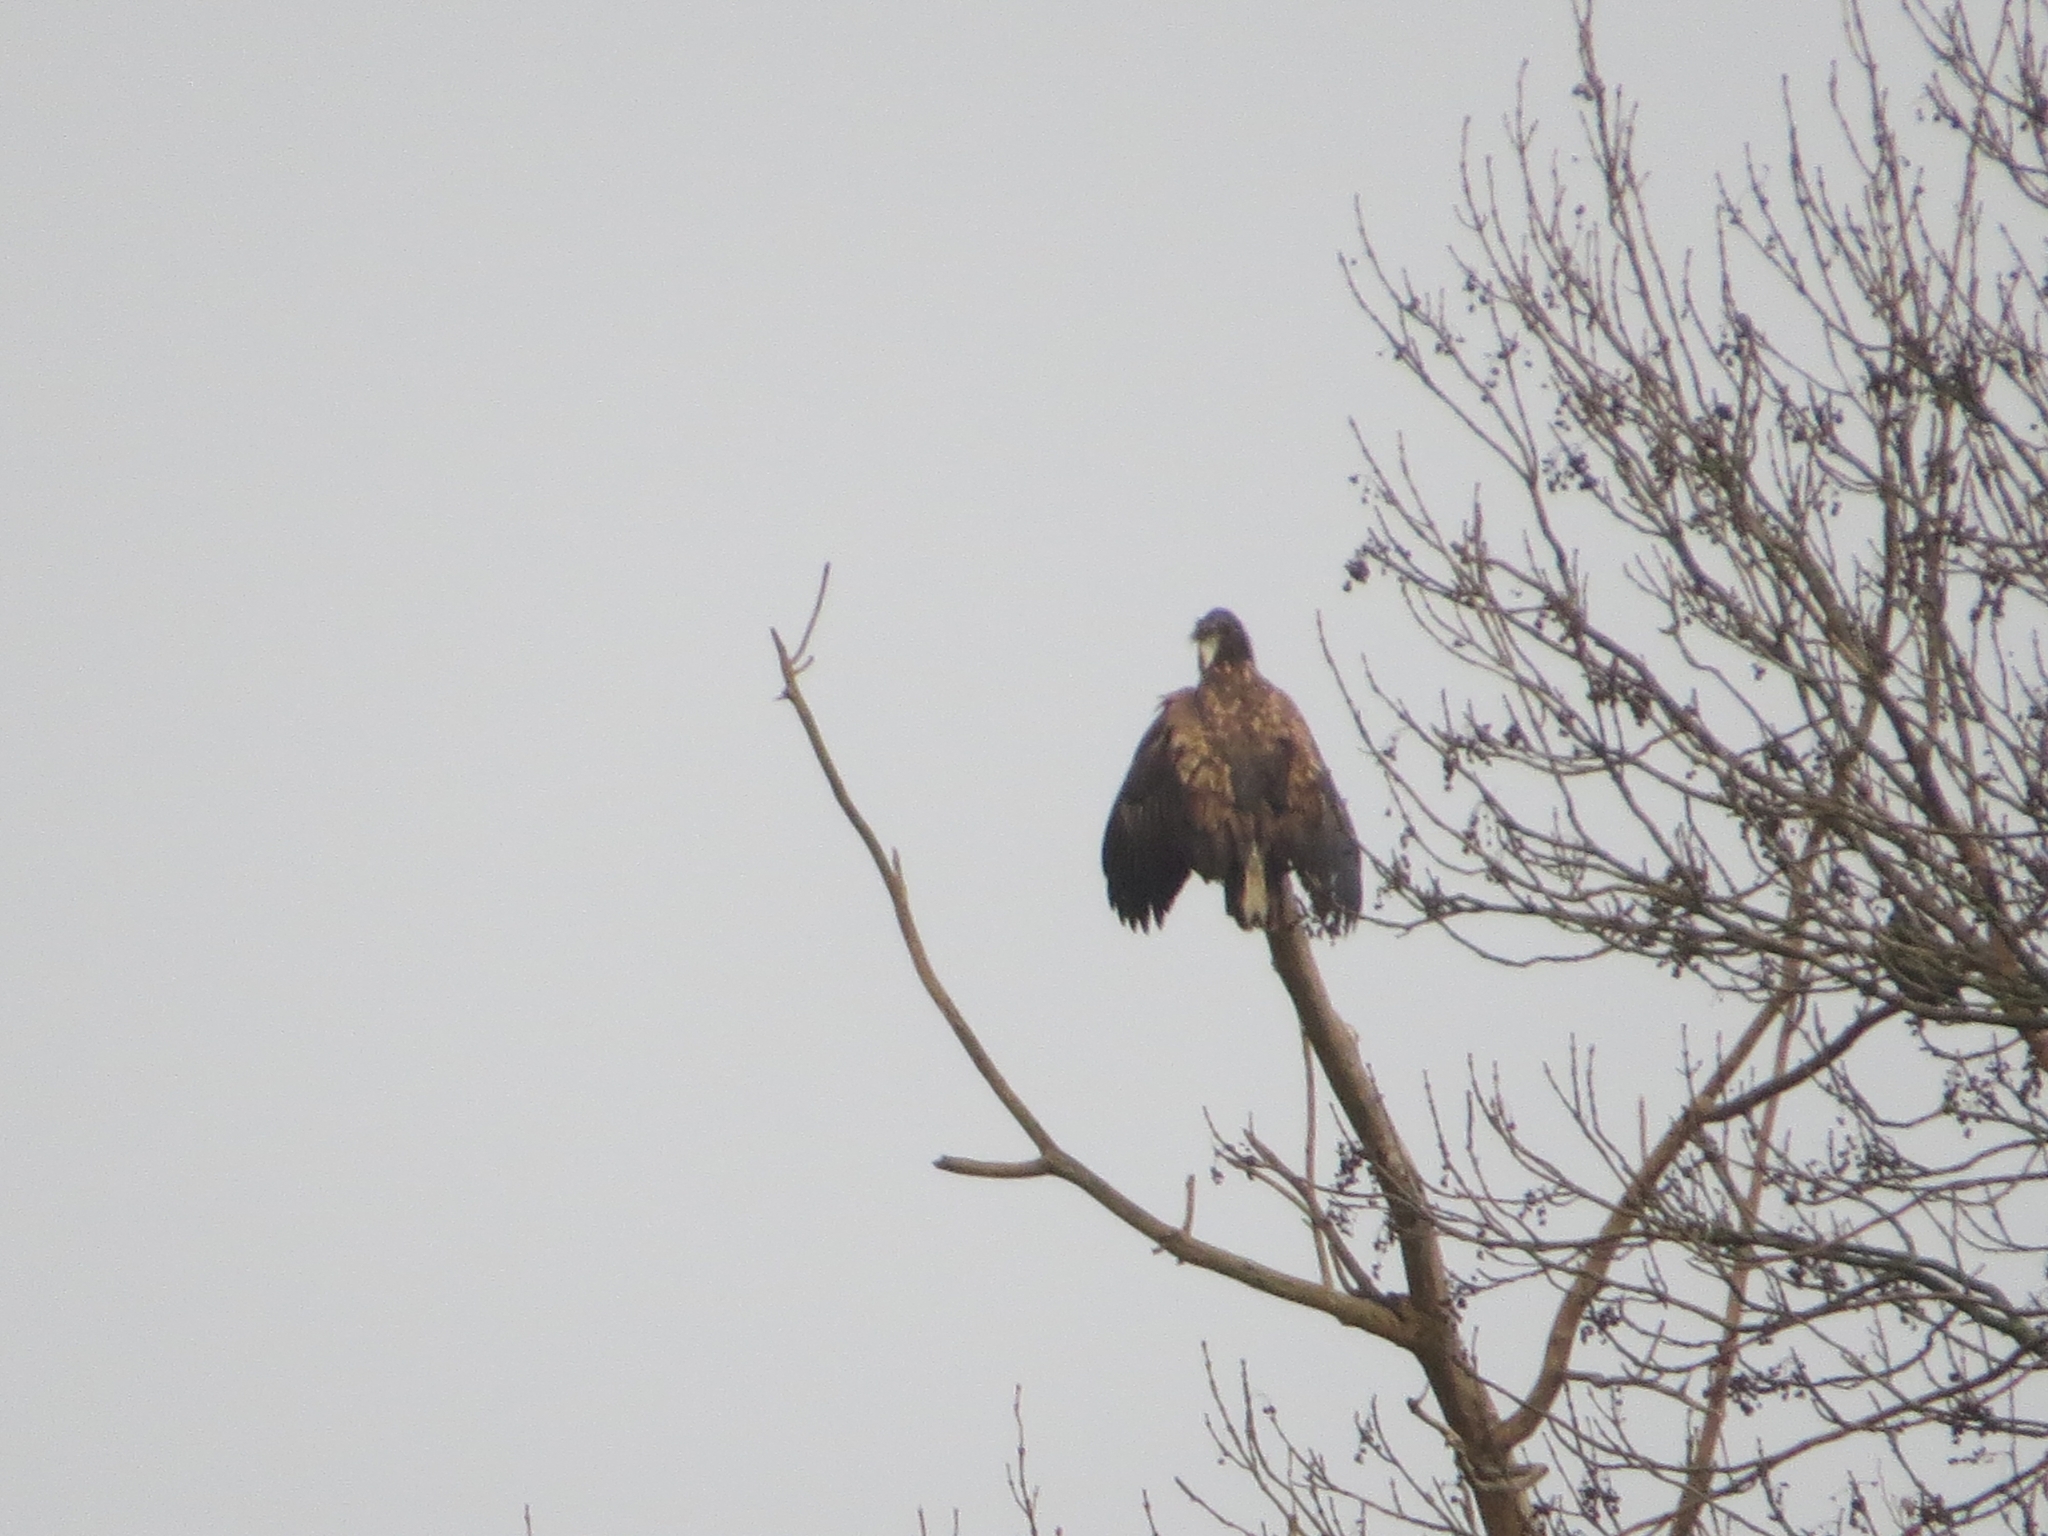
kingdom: Animalia
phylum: Chordata
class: Aves
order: Accipitriformes
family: Accipitridae
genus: Haliaeetus
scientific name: Haliaeetus albicilla
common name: White-tailed eagle
